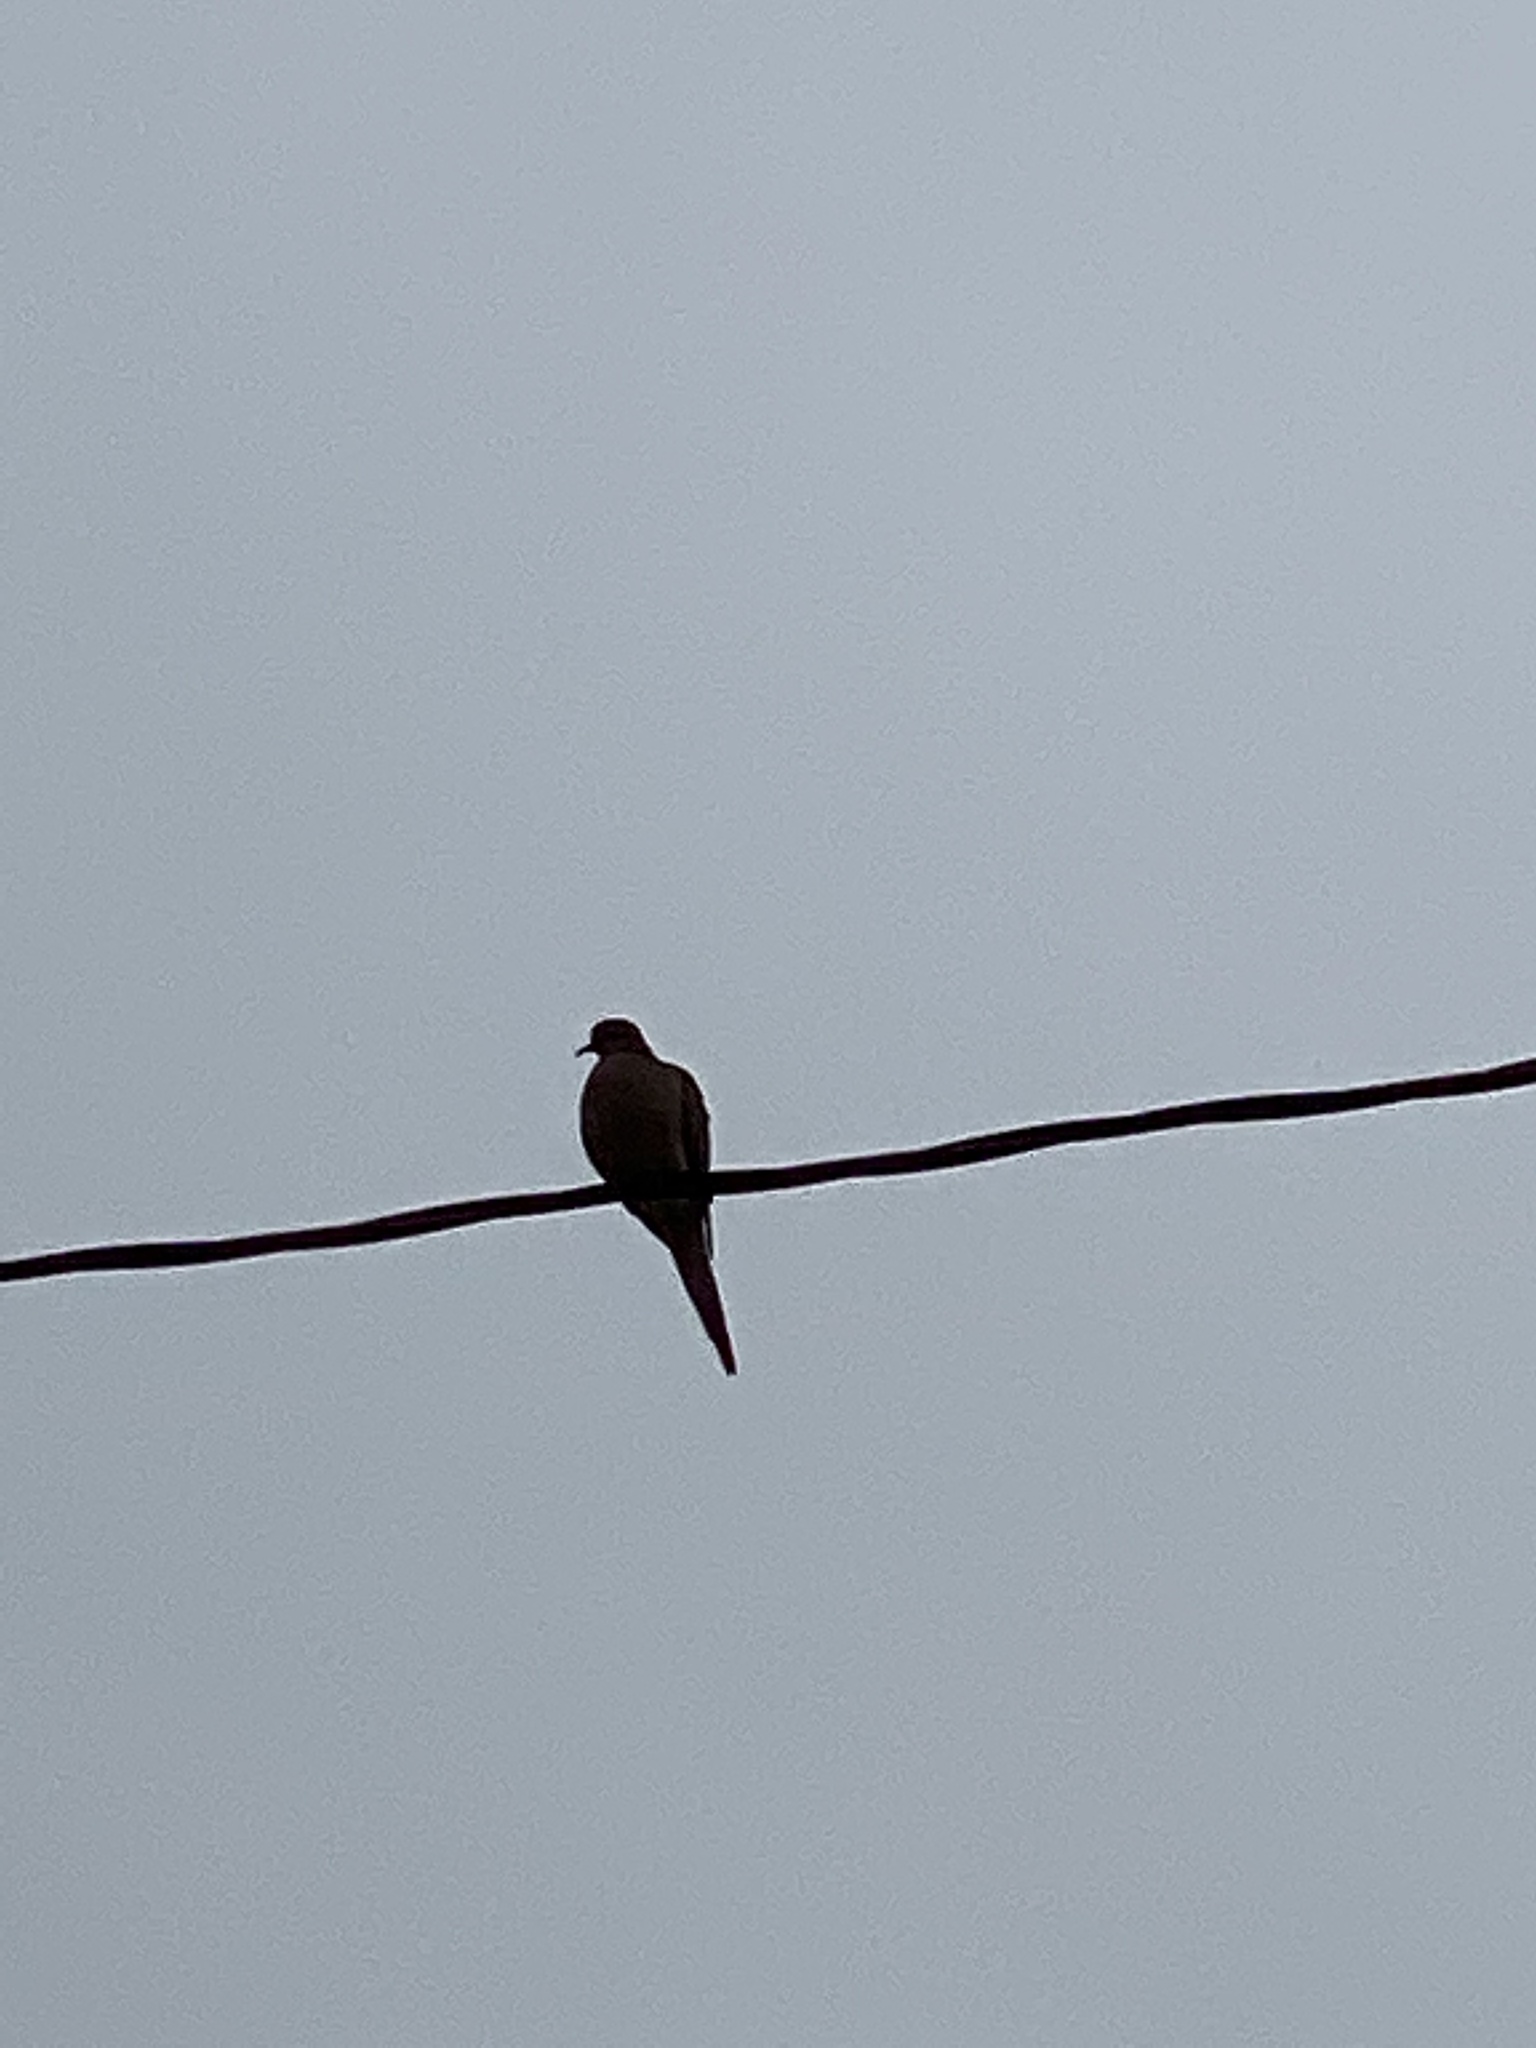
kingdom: Animalia
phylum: Chordata
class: Aves
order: Columbiformes
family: Columbidae
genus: Zenaida
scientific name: Zenaida macroura
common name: Mourning dove
